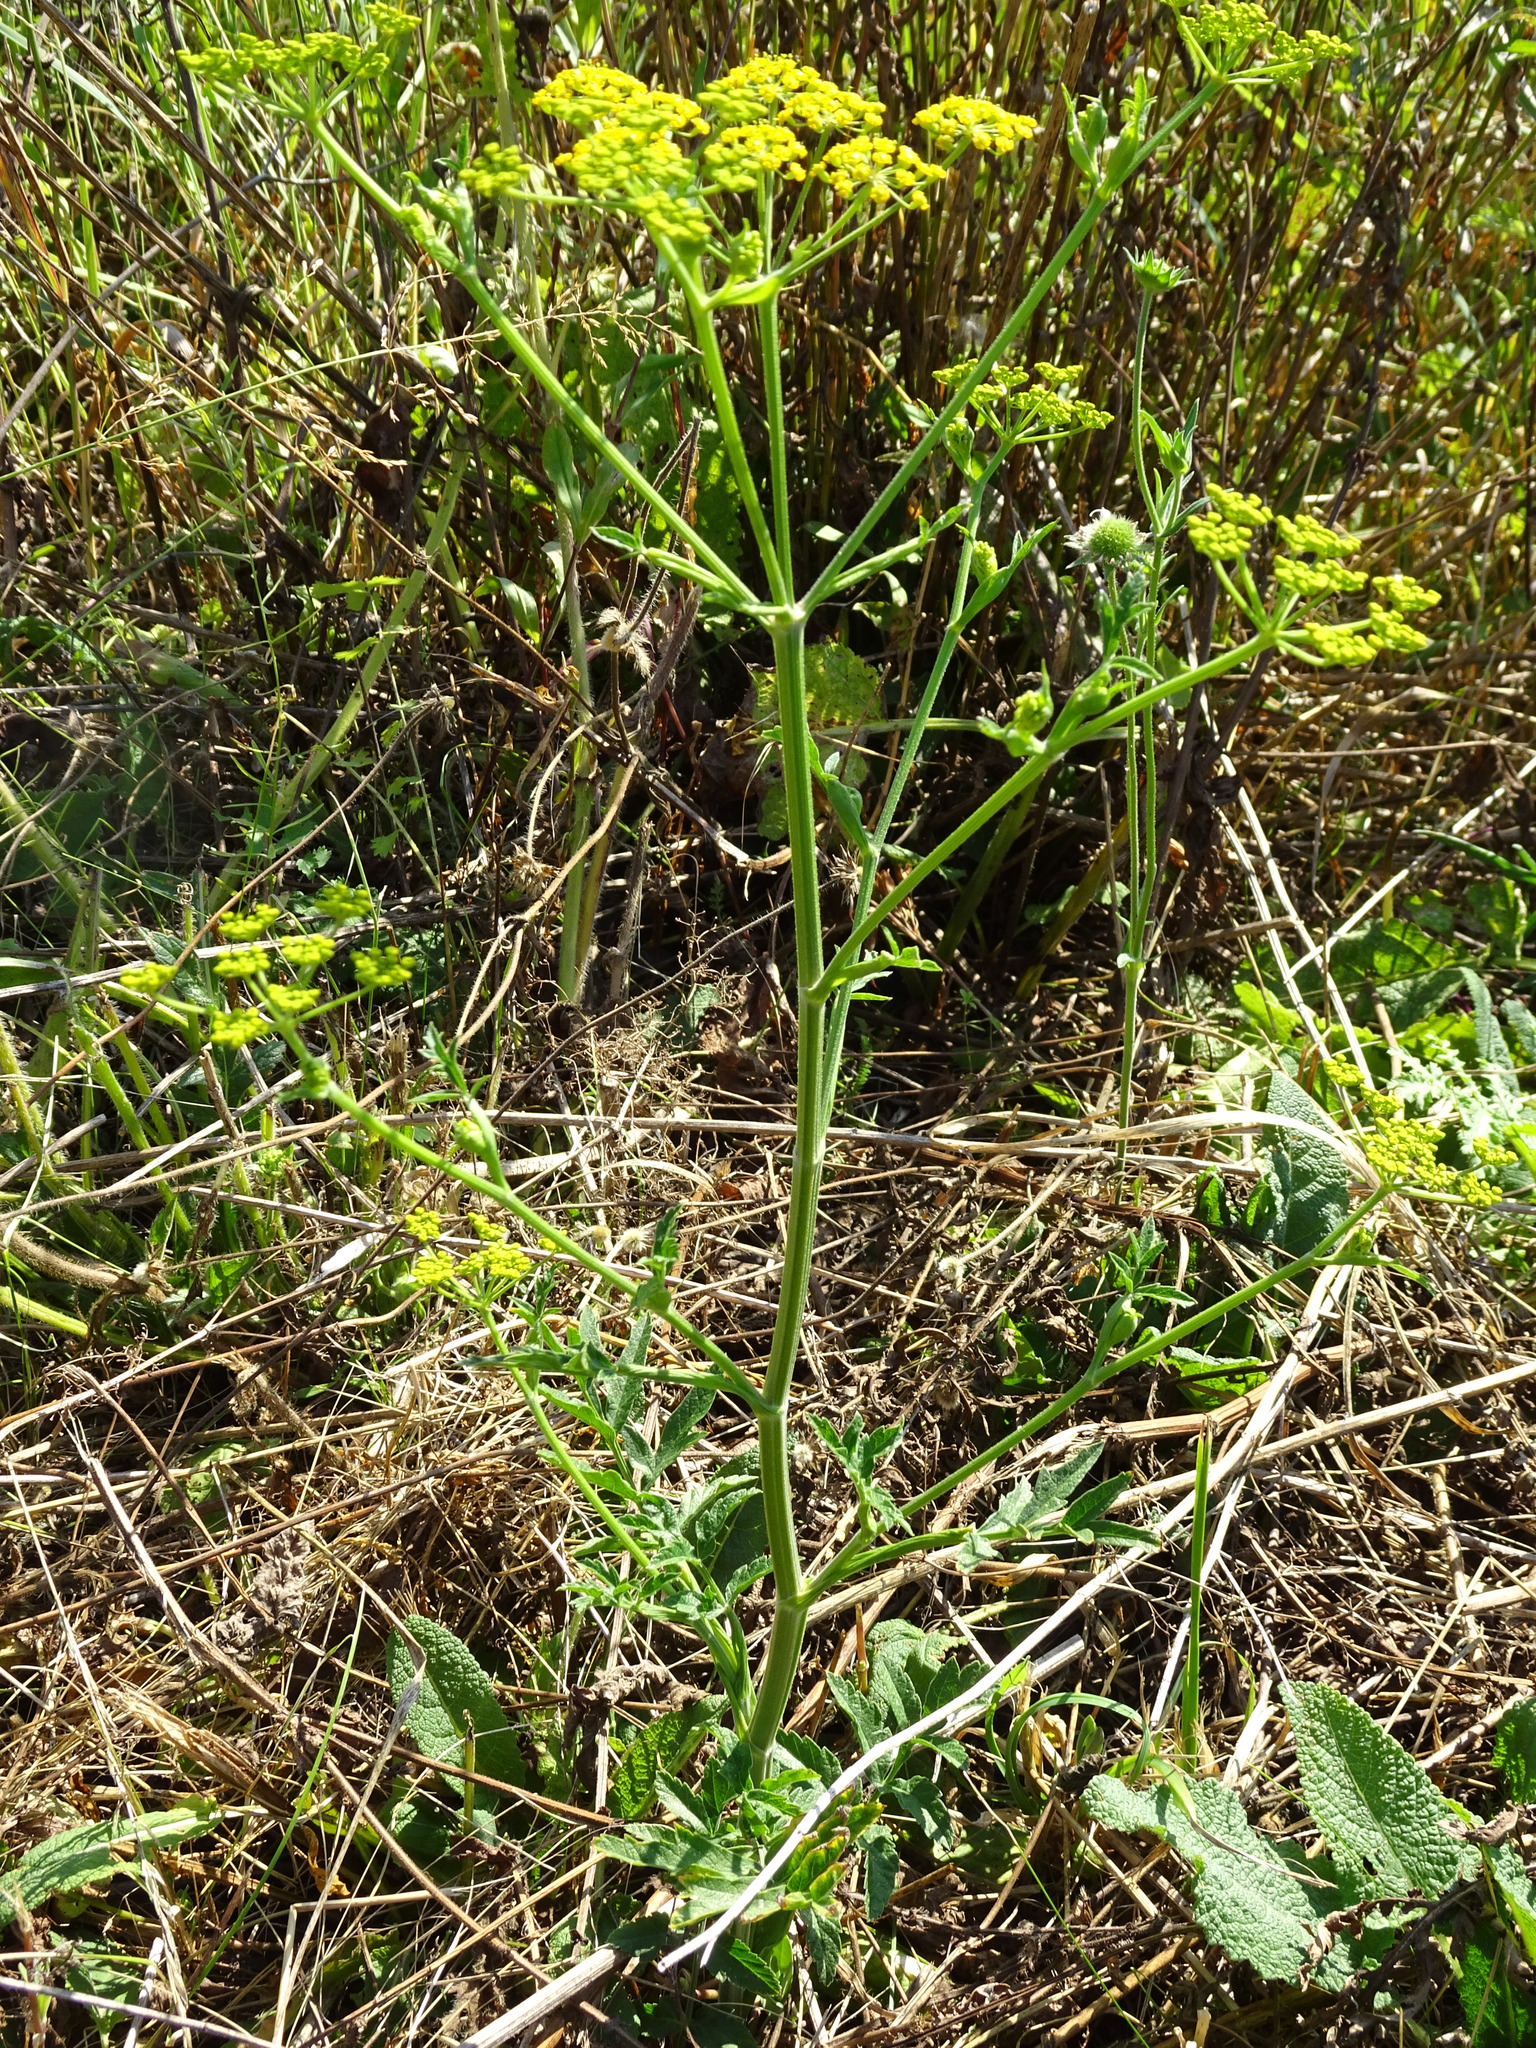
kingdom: Plantae
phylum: Tracheophyta
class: Magnoliopsida
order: Apiales
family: Apiaceae
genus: Pastinaca
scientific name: Pastinaca sativa
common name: Wild parsnip
